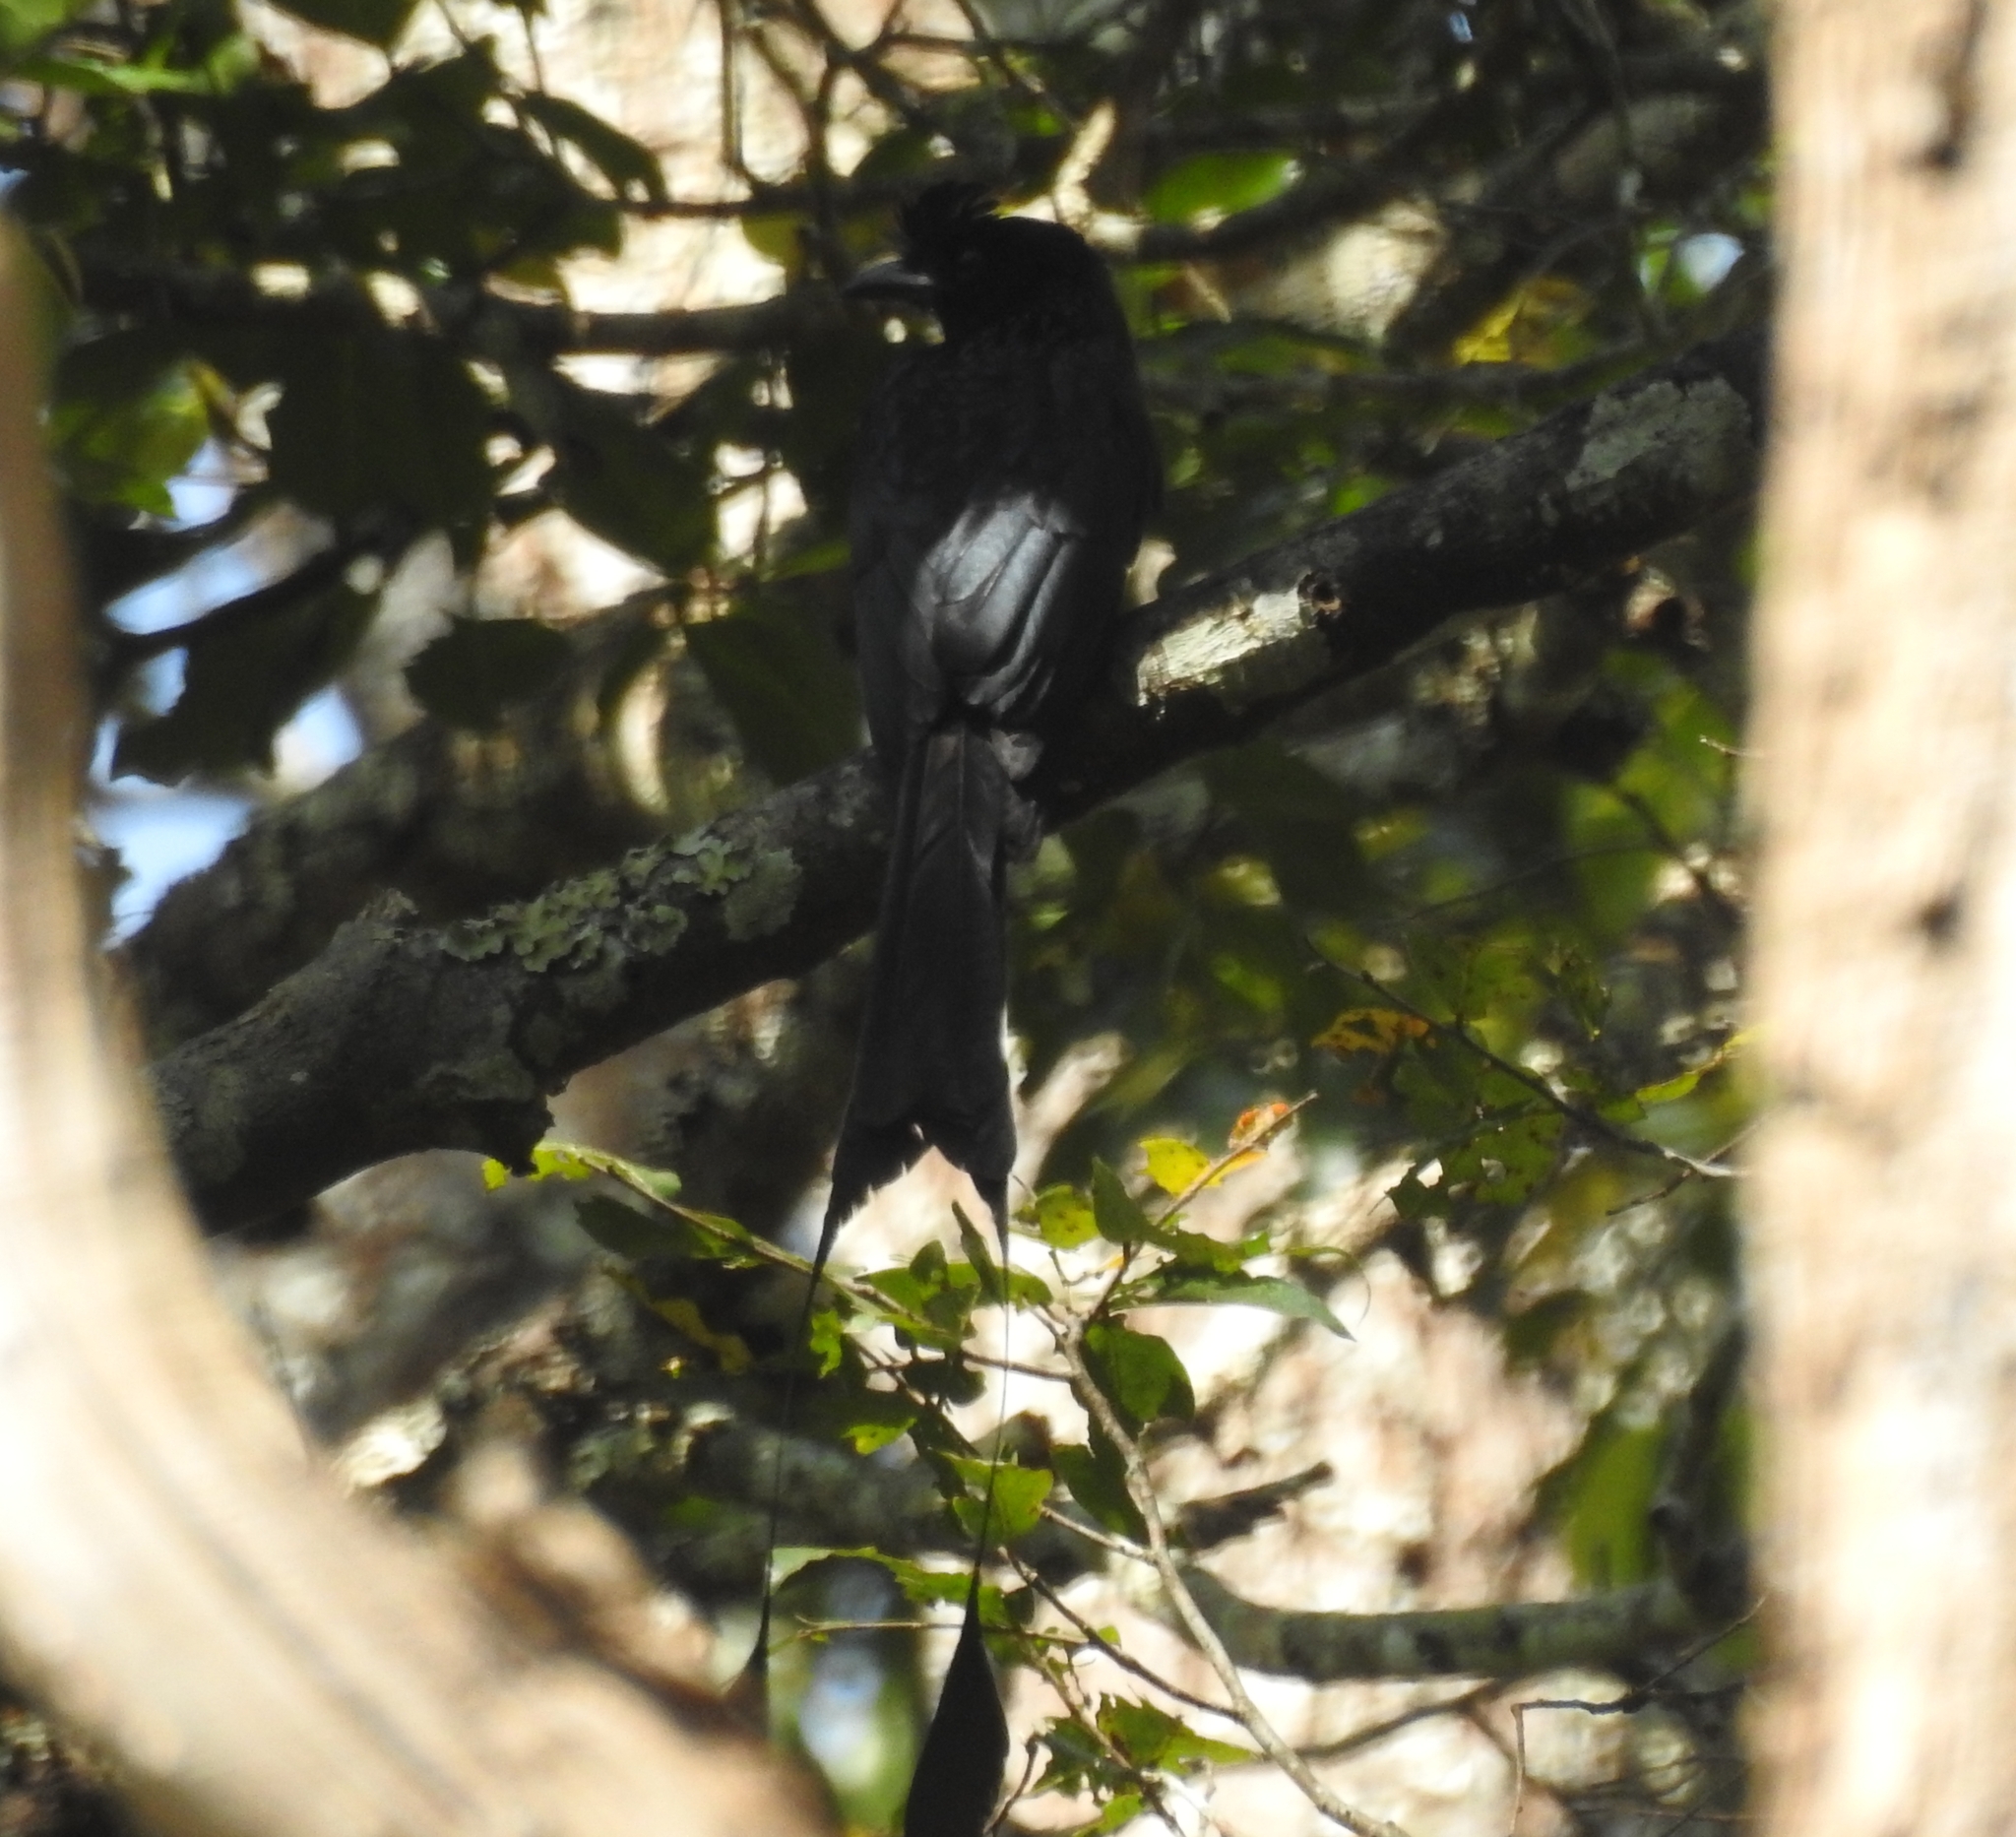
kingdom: Animalia
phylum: Chordata
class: Aves
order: Passeriformes
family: Dicruridae
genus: Dicrurus
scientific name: Dicrurus paradiseus
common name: Greater racket-tailed drongo
